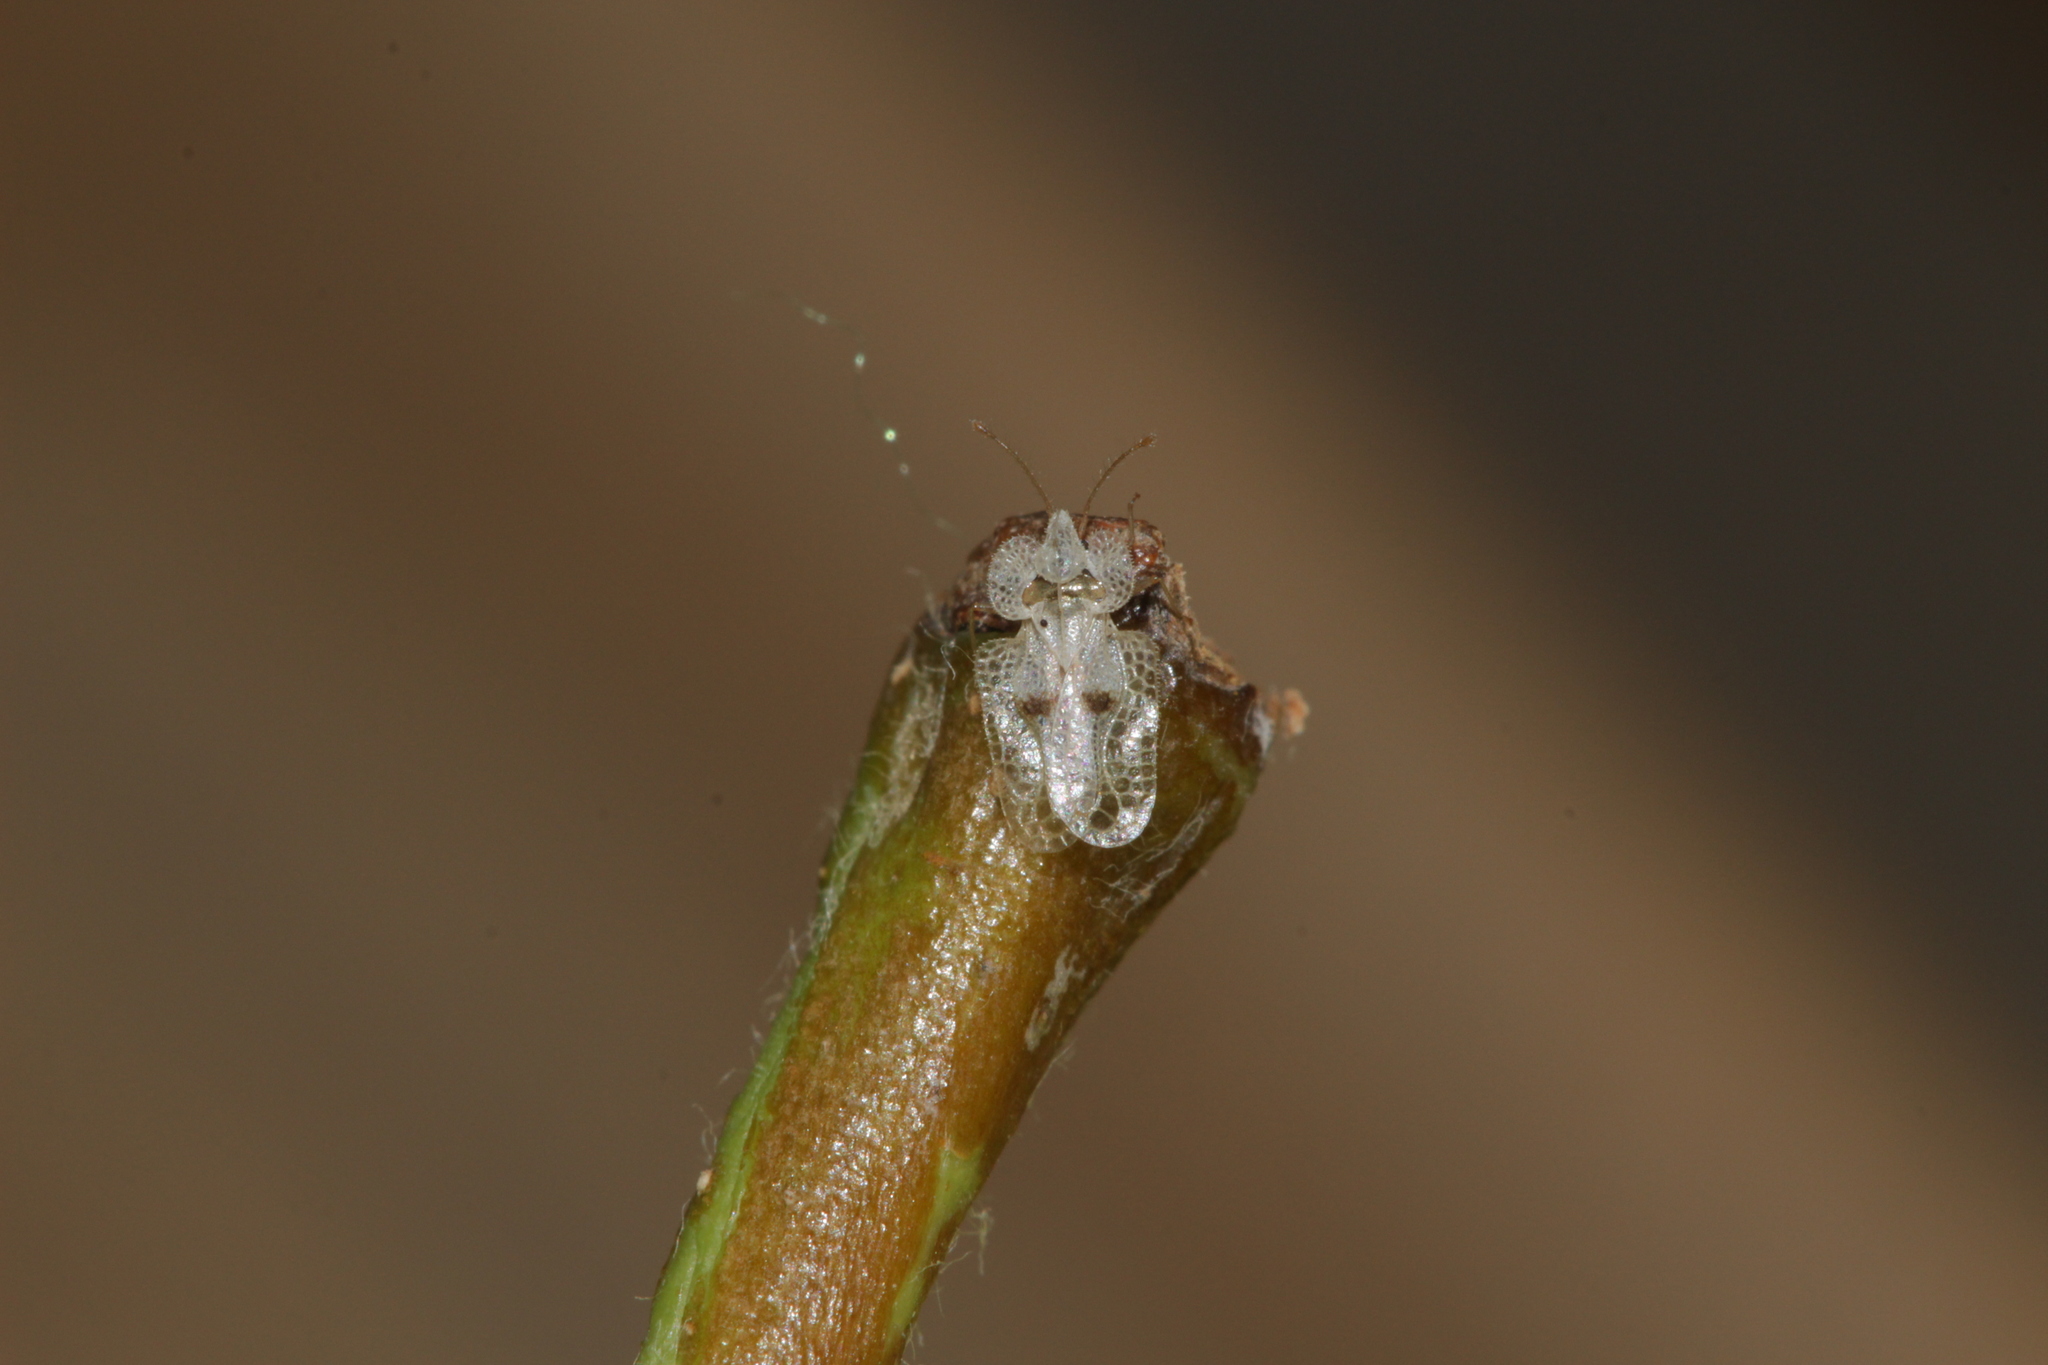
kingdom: Animalia
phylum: Arthropoda
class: Insecta
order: Hemiptera
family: Tingidae
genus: Corythucha
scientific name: Corythucha ciliata
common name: Sycamore lace bug
